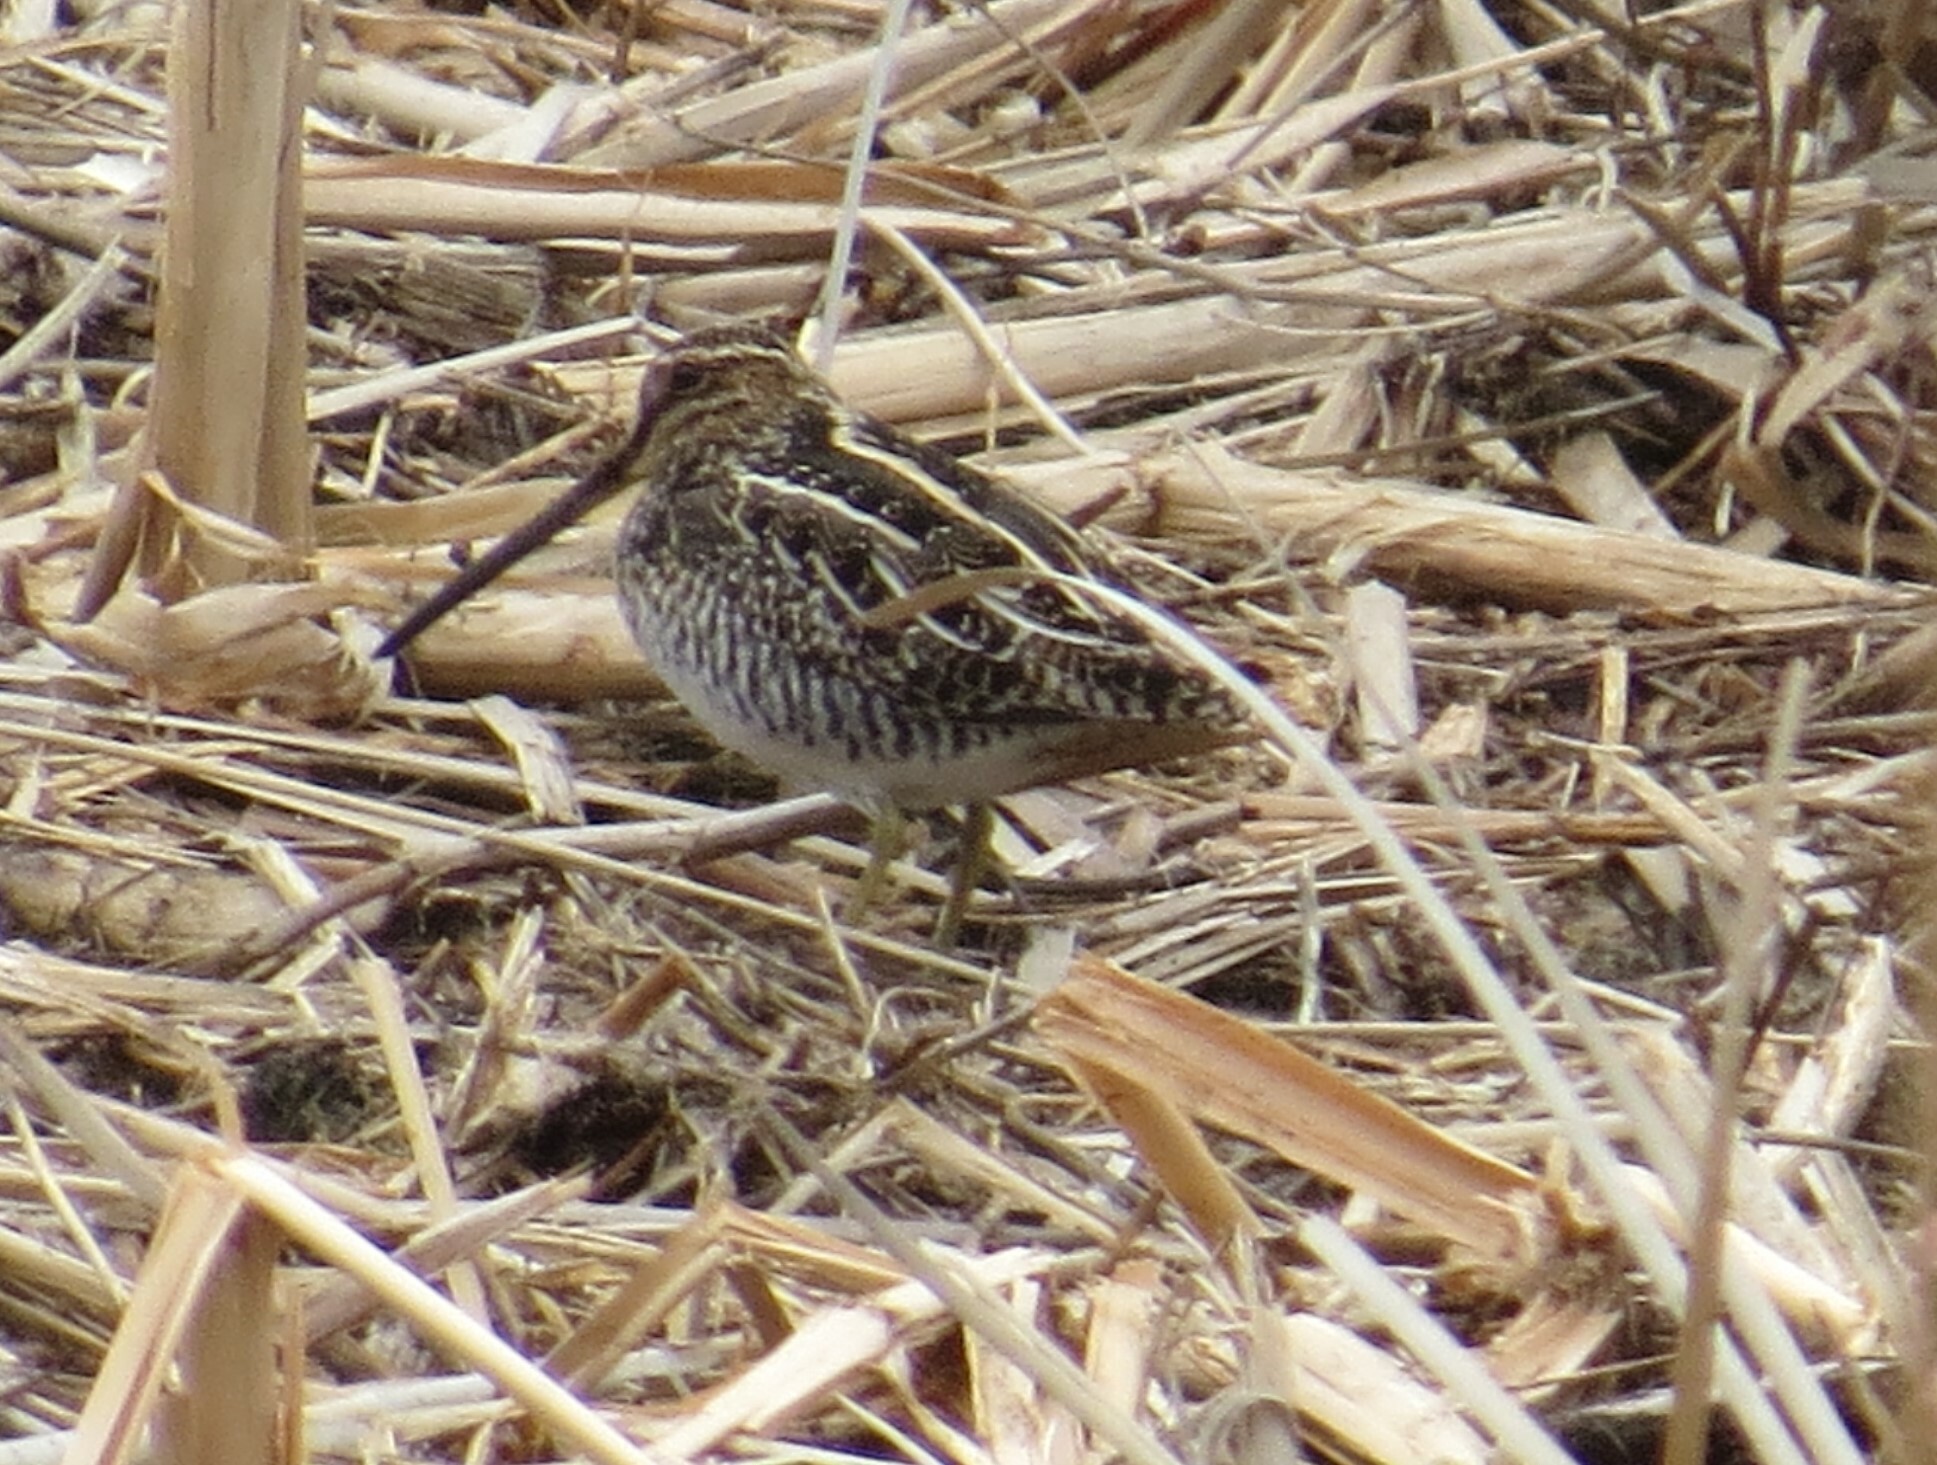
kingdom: Animalia
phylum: Chordata
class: Aves
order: Charadriiformes
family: Scolopacidae
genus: Gallinago
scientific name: Gallinago delicata
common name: Wilson's snipe
